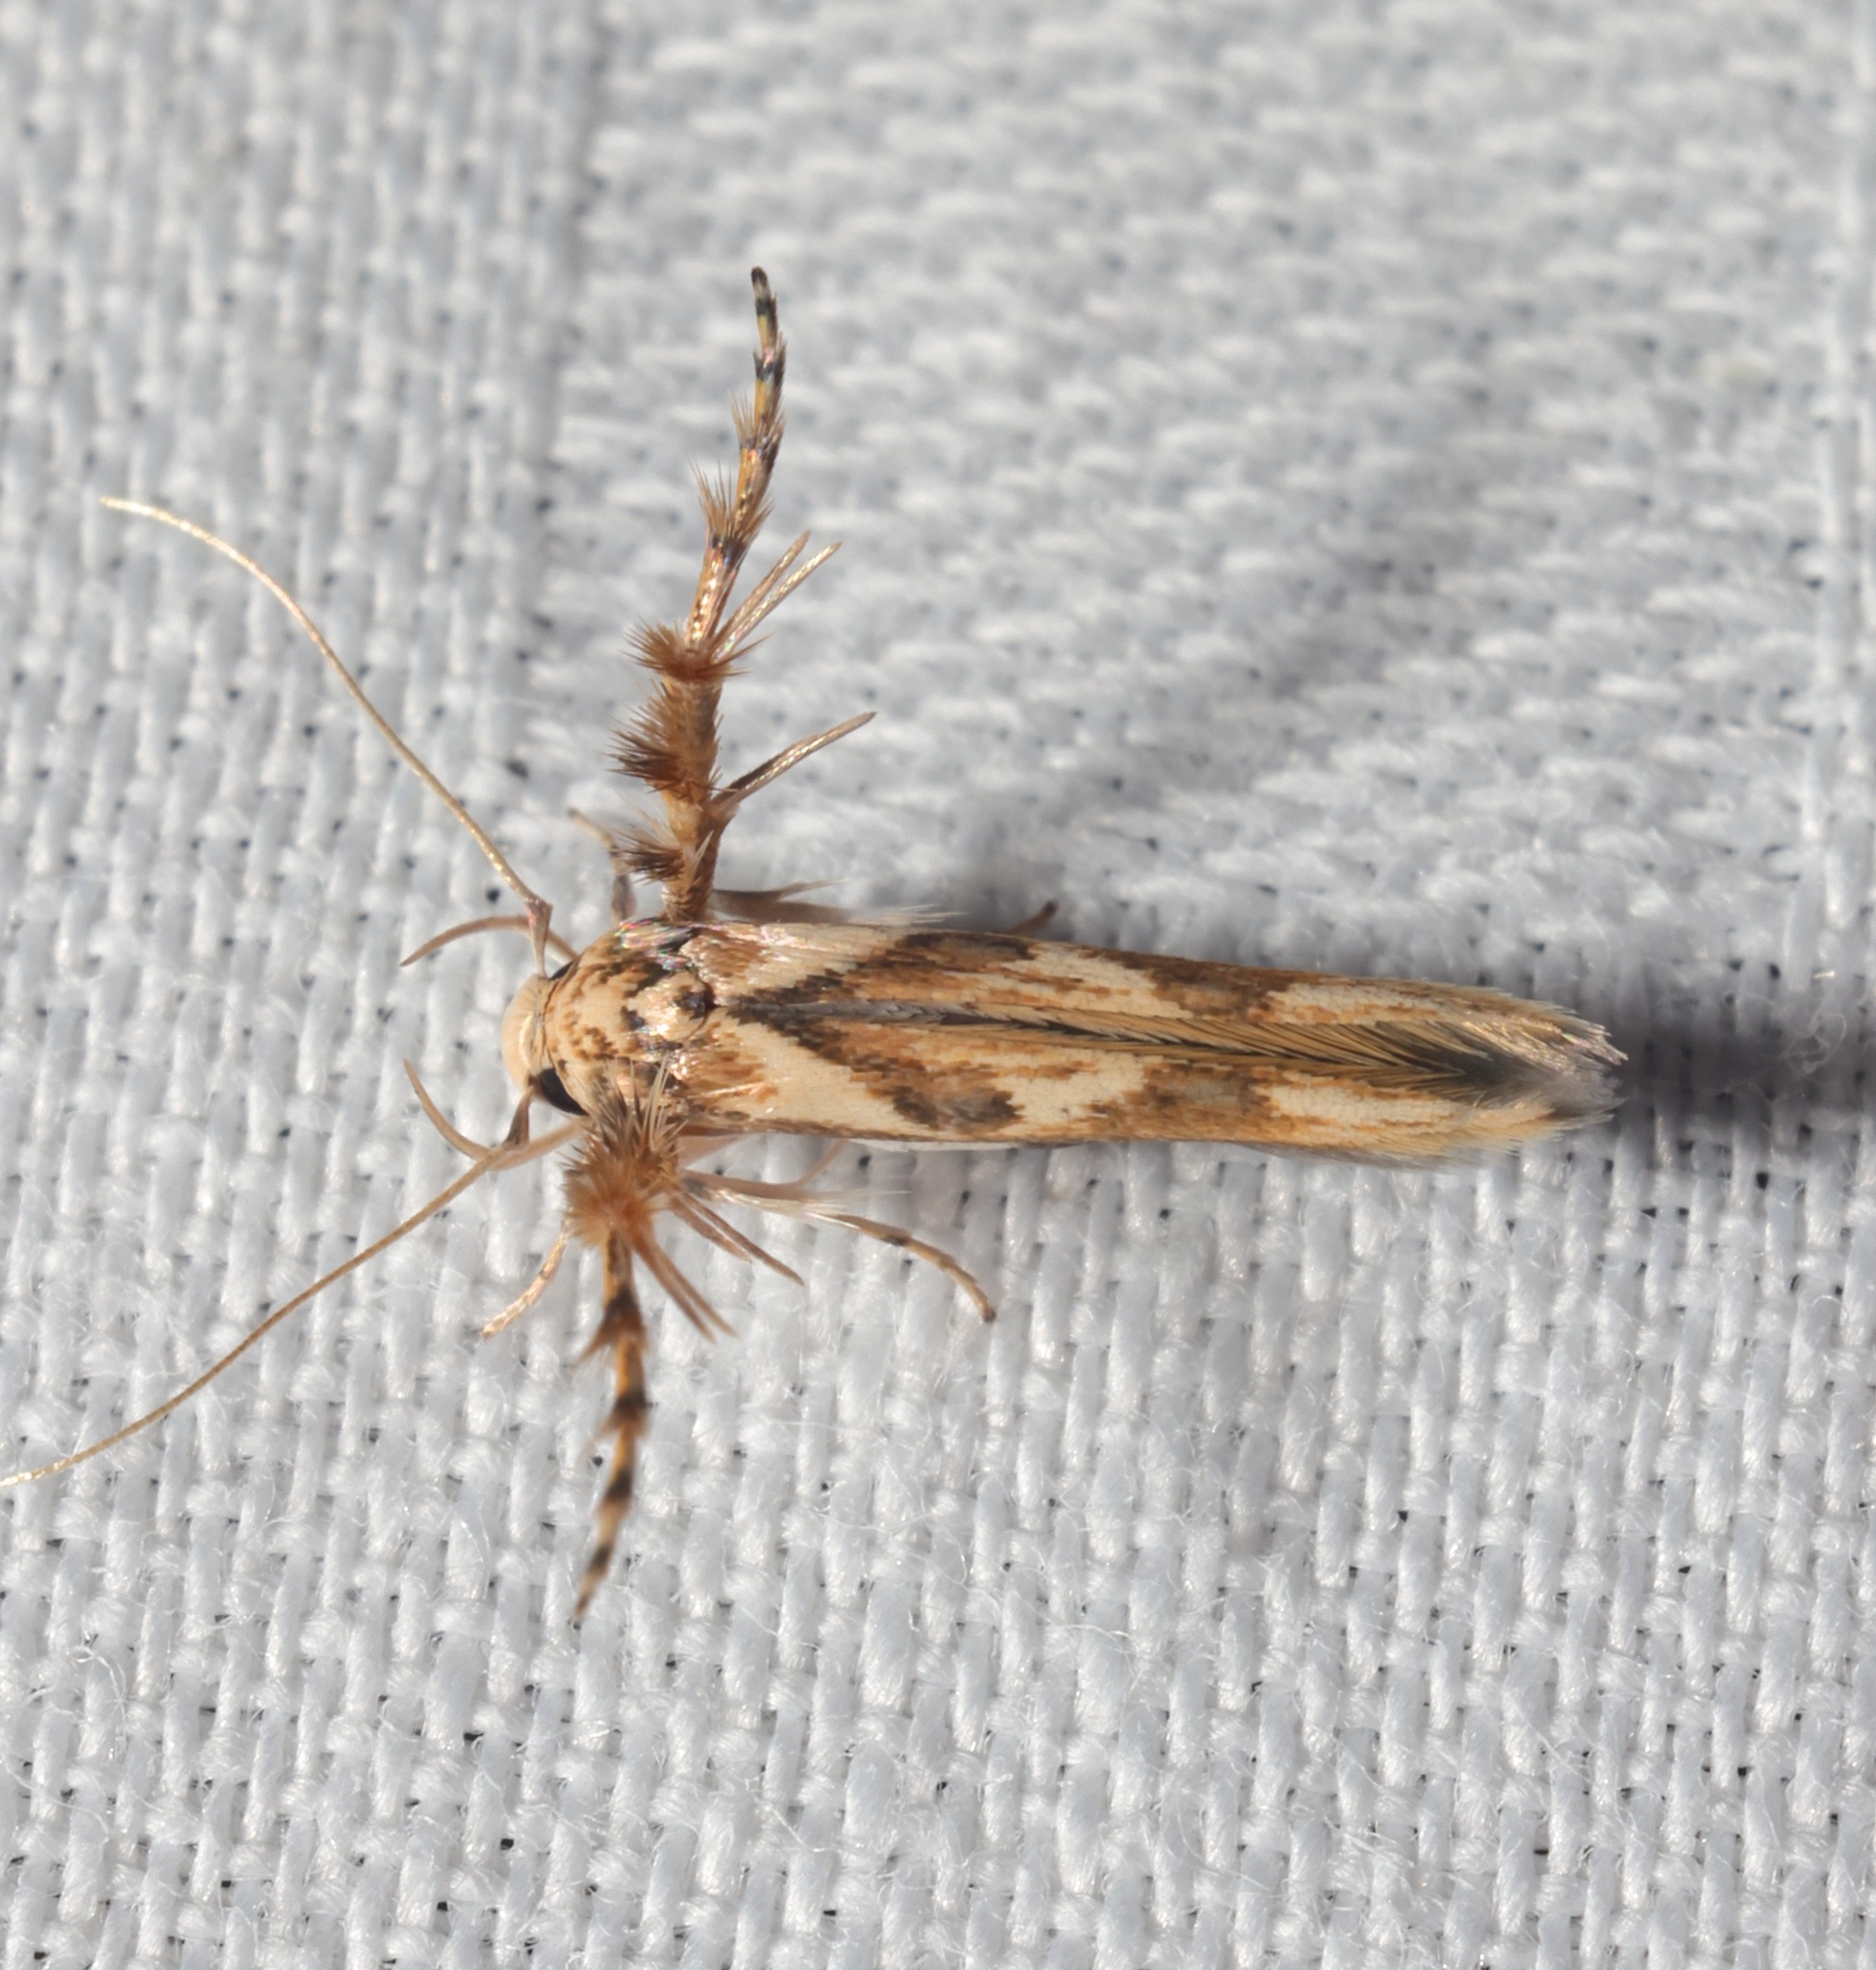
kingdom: Animalia
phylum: Arthropoda
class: Insecta
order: Lepidoptera
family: Stathmopodidae
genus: Stathmopoda
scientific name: Stathmopoda stimulata
